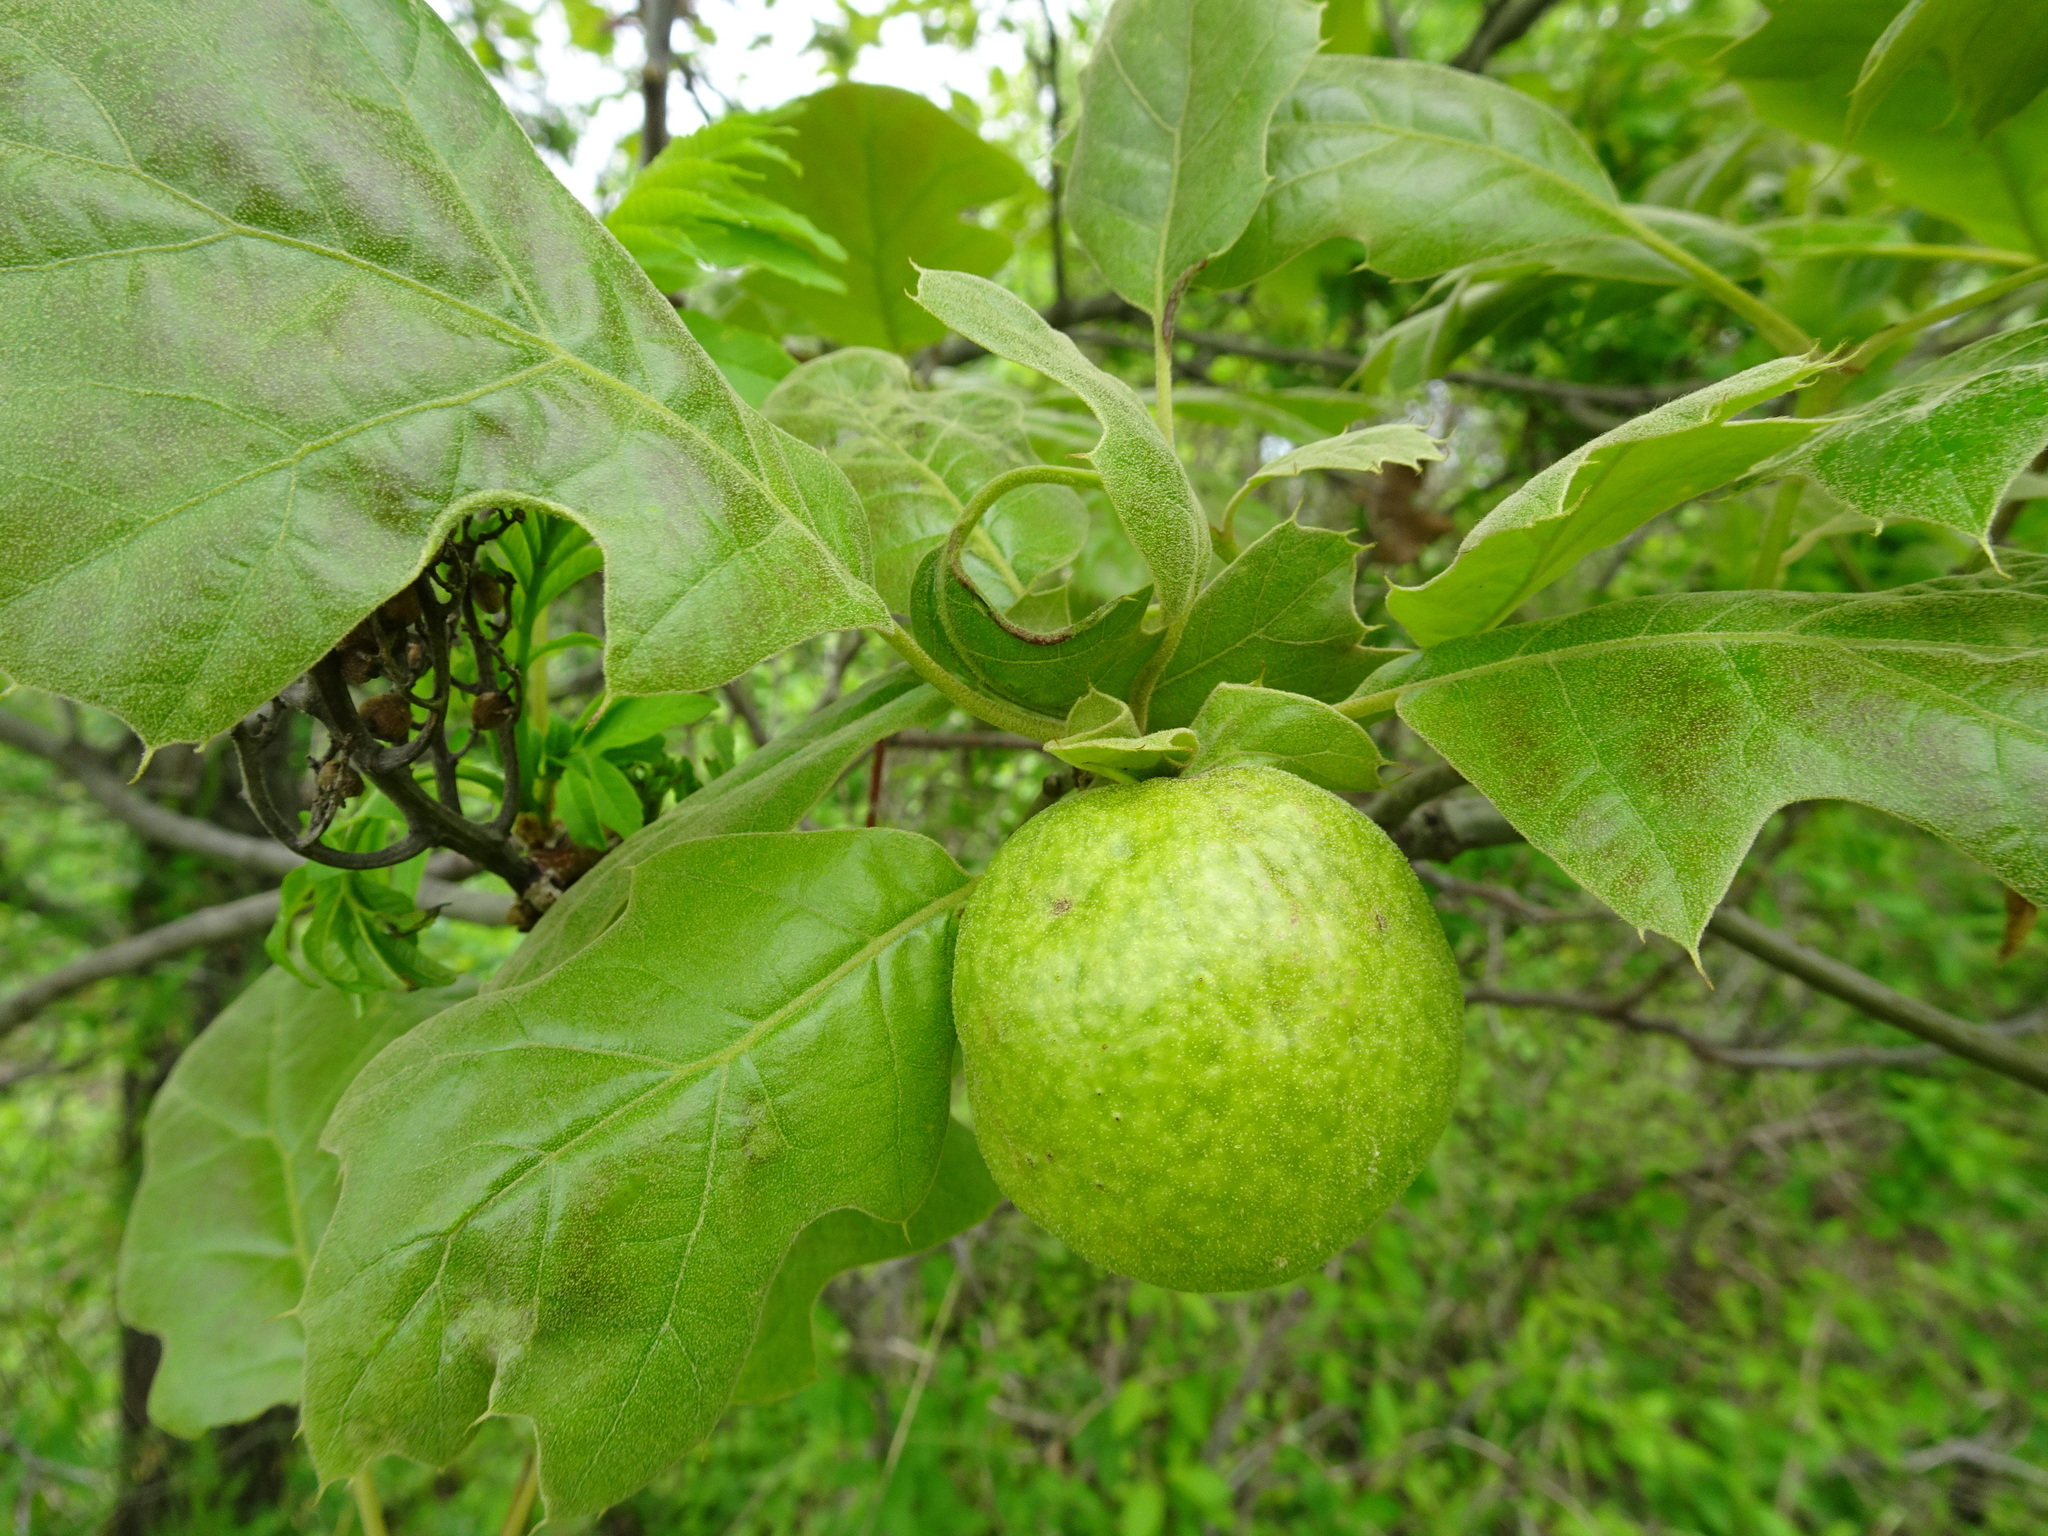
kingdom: Animalia
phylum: Arthropoda
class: Insecta
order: Hymenoptera
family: Cynipidae
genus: Amphibolips
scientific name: Amphibolips
